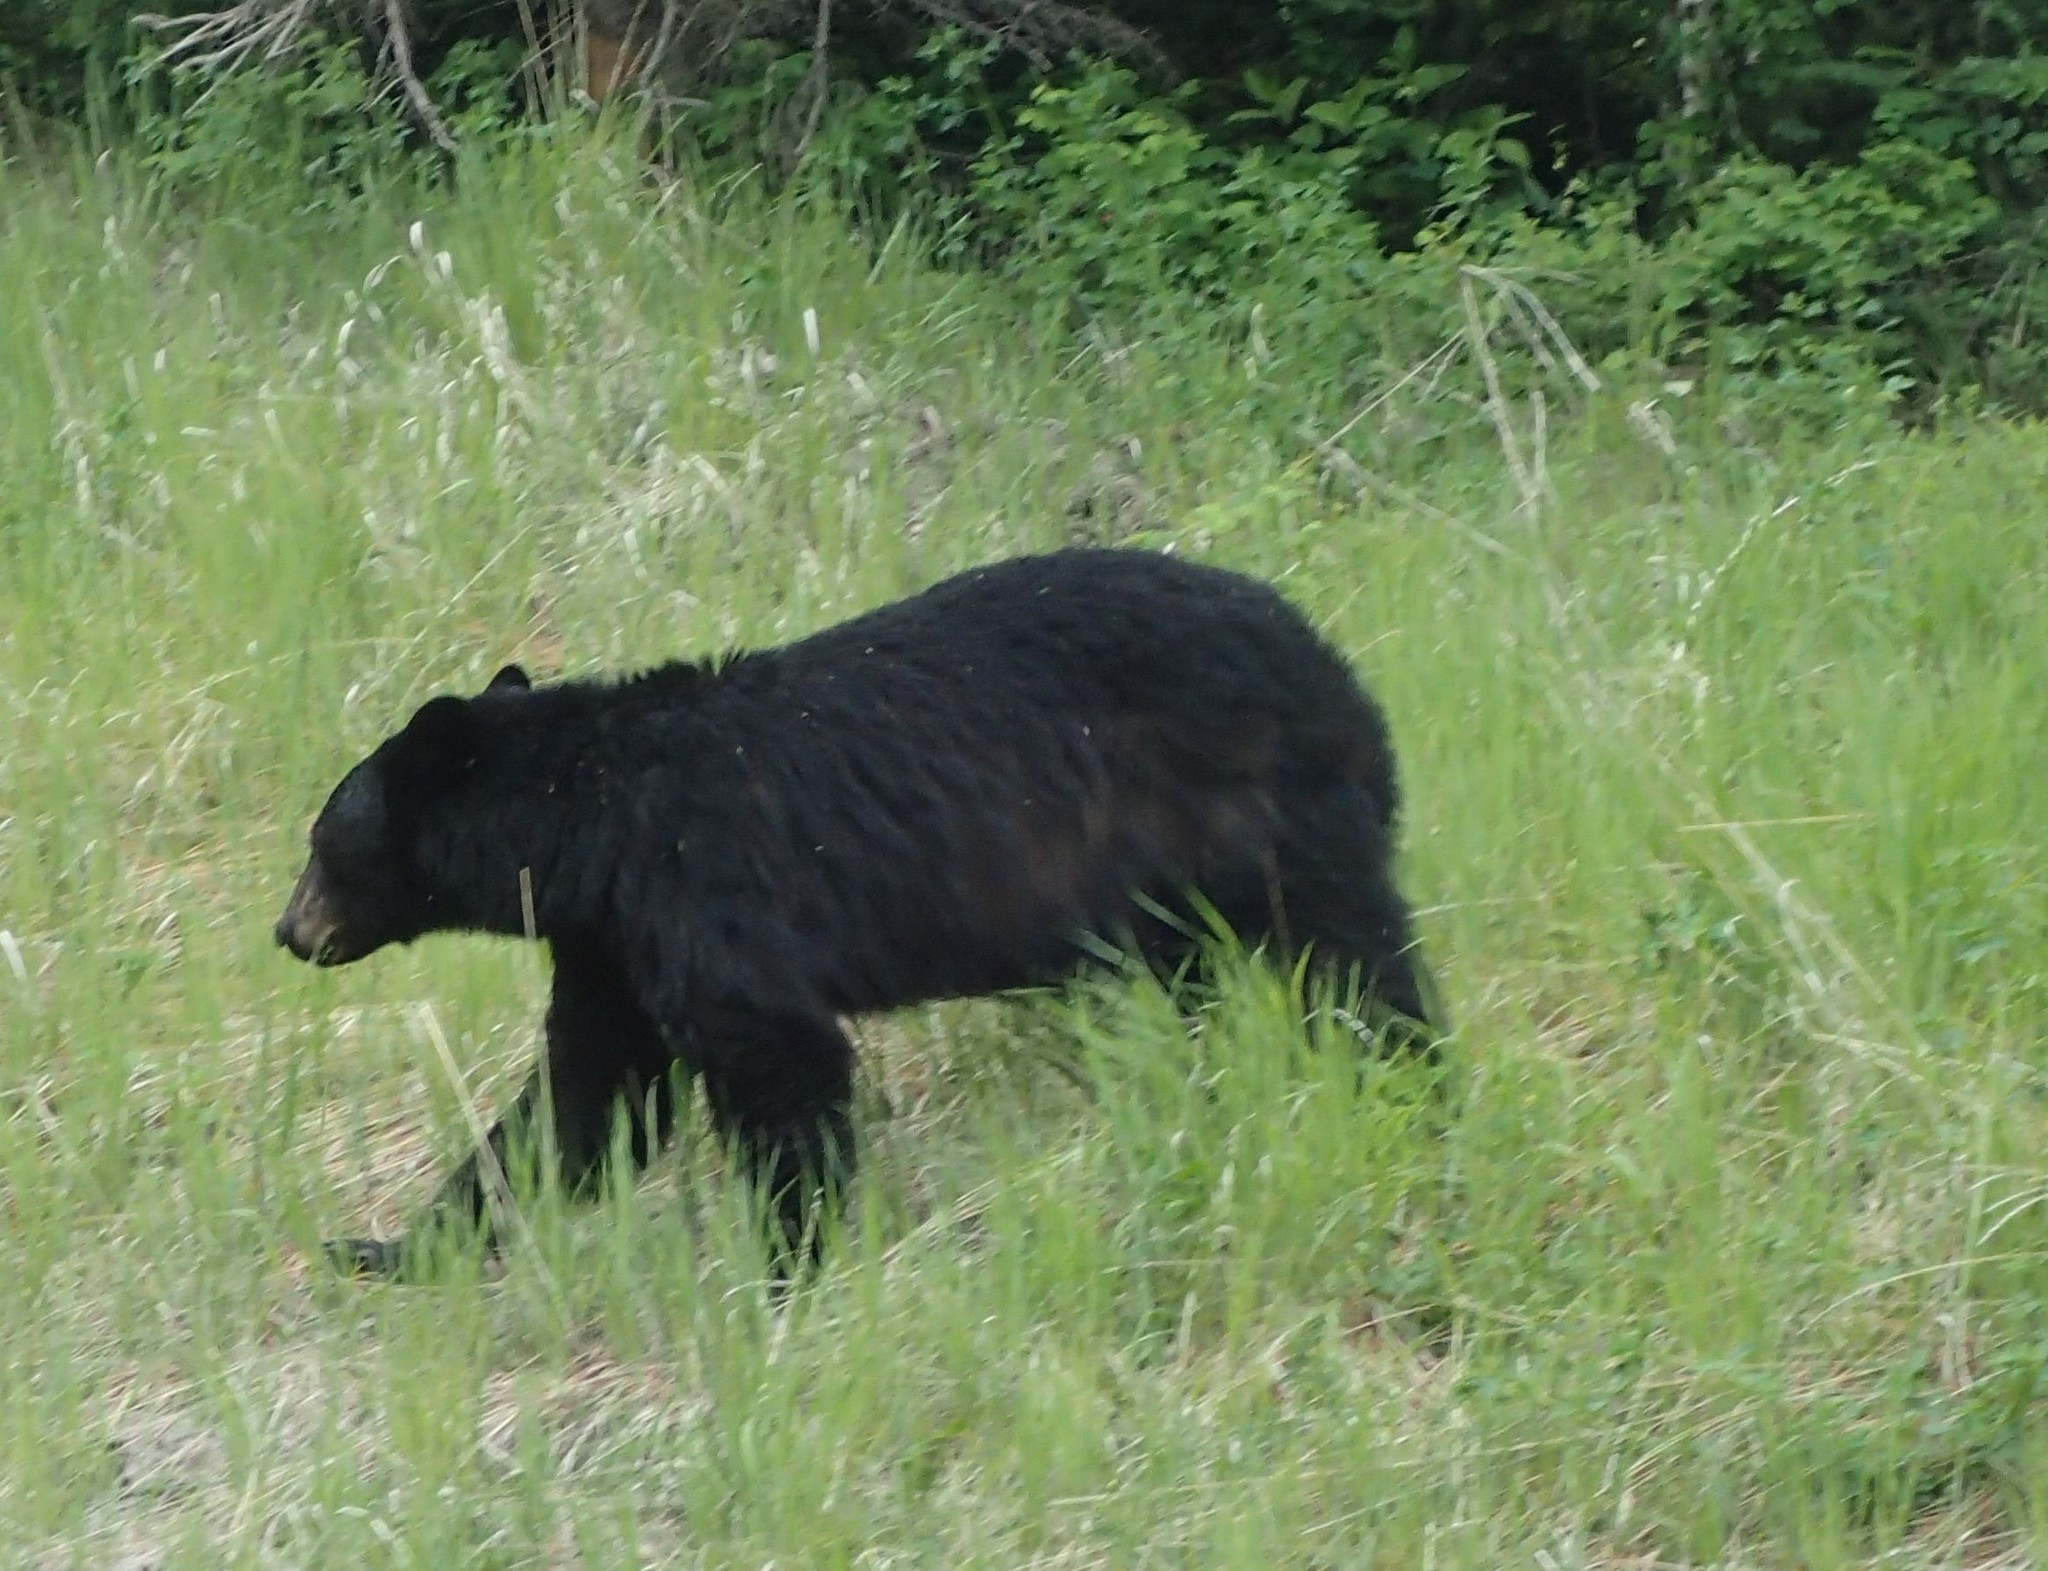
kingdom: Animalia
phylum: Chordata
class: Mammalia
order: Carnivora
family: Ursidae
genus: Ursus
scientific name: Ursus americanus
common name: American black bear
